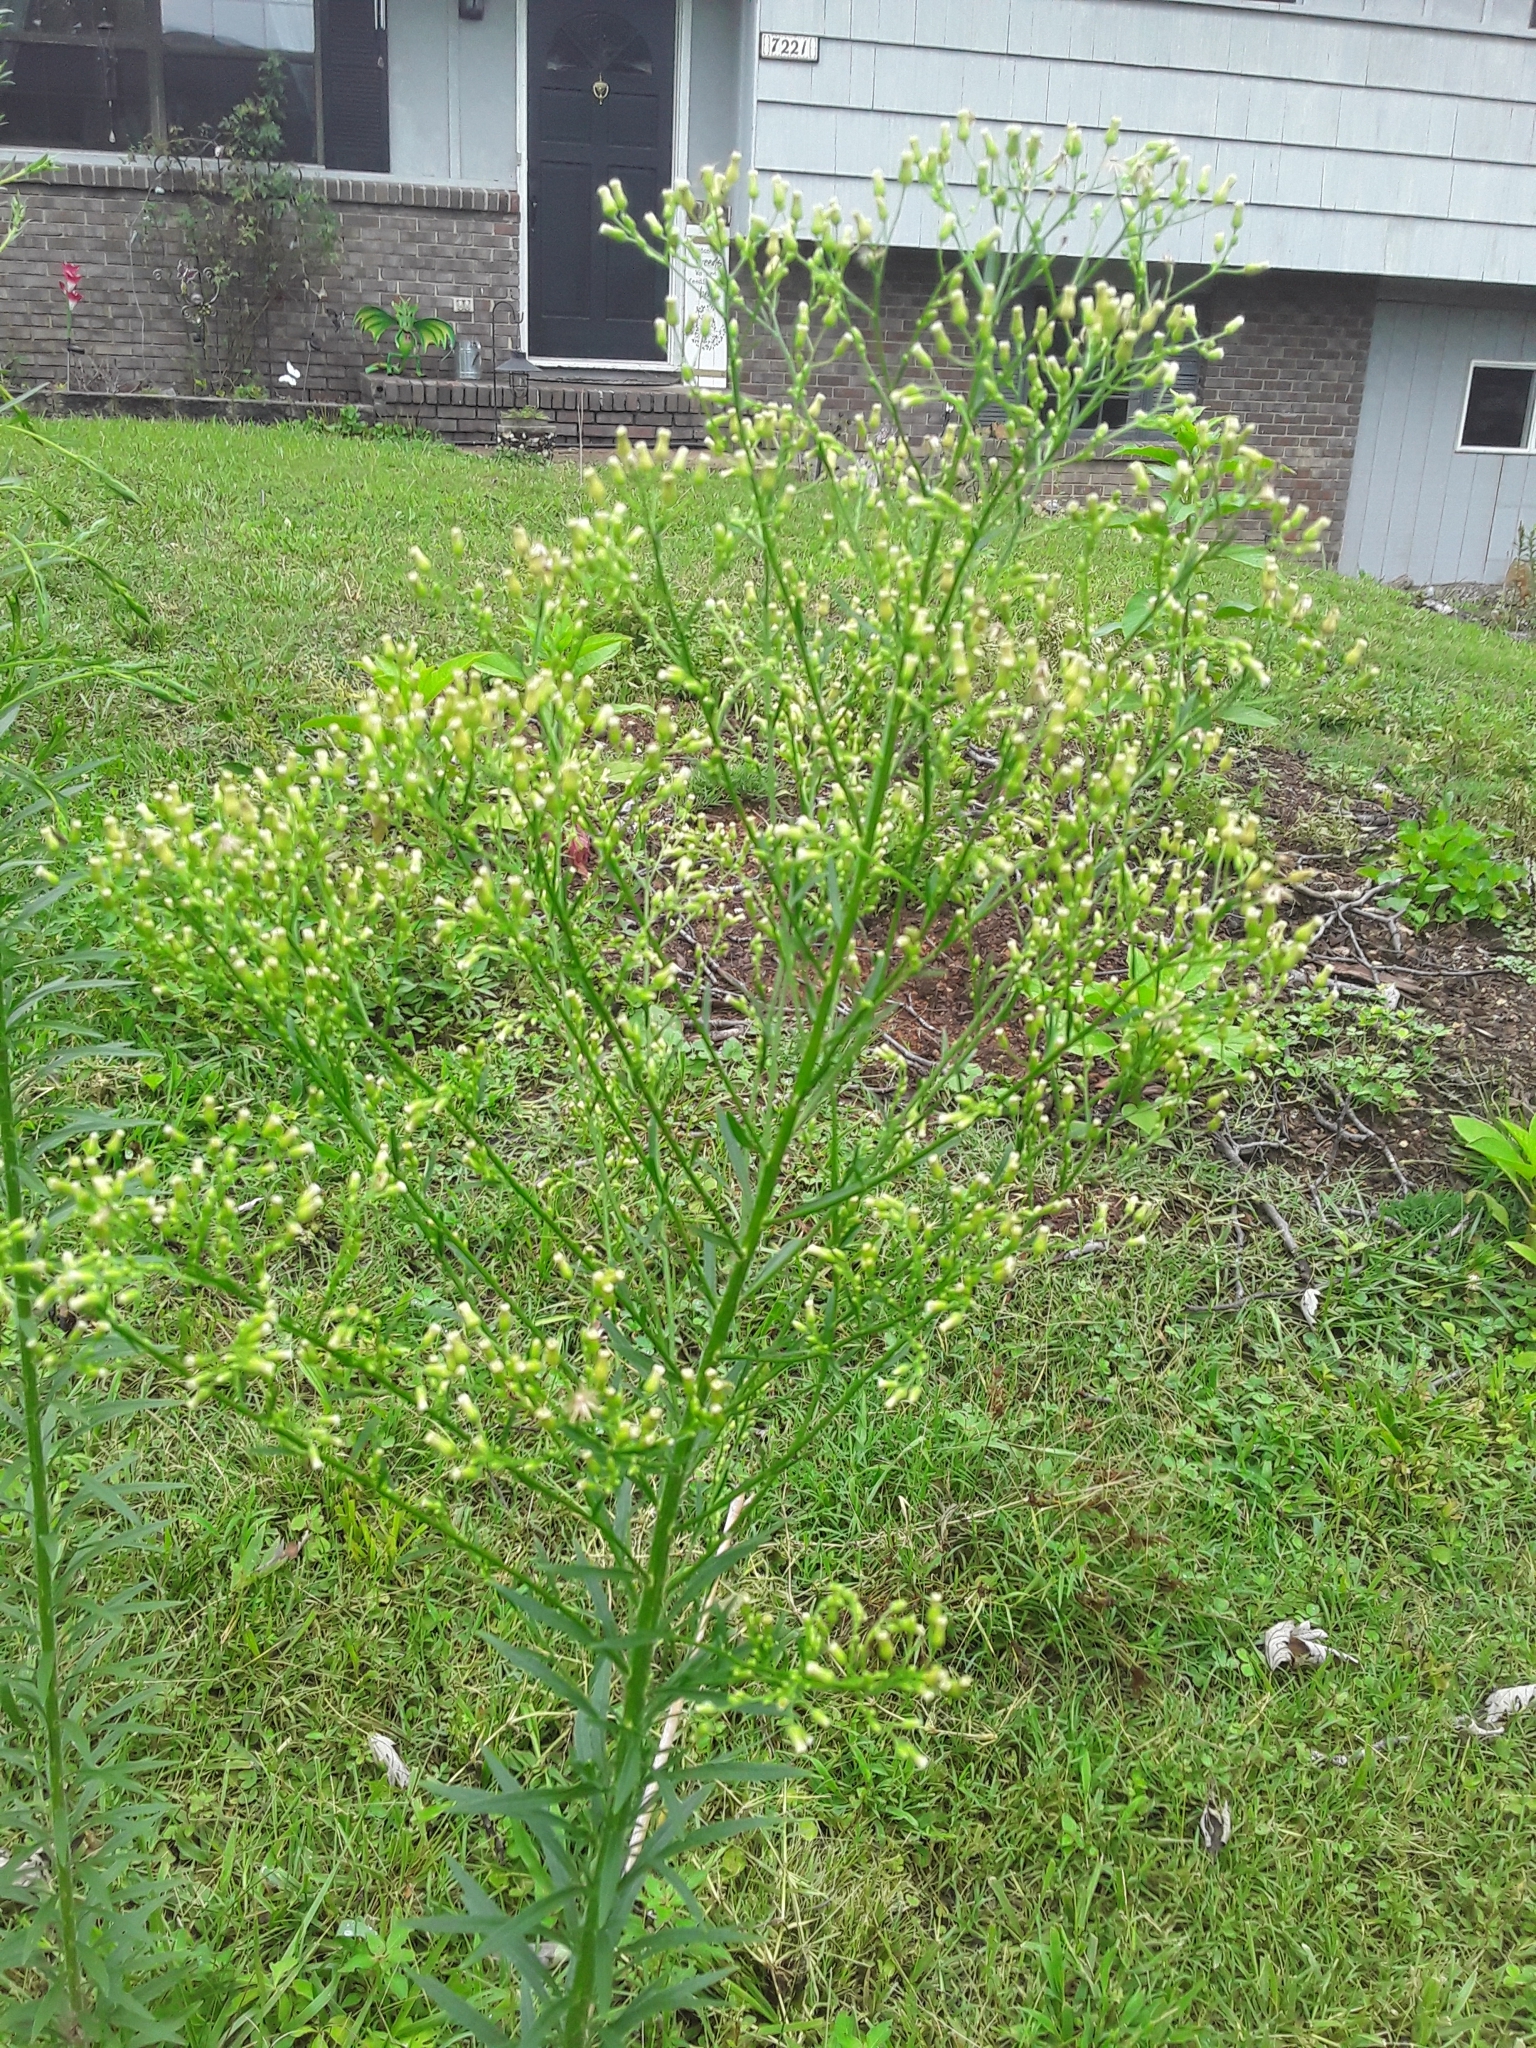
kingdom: Plantae
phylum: Tracheophyta
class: Magnoliopsida
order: Asterales
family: Asteraceae
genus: Erigeron
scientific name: Erigeron canadensis
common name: Canadian fleabane
